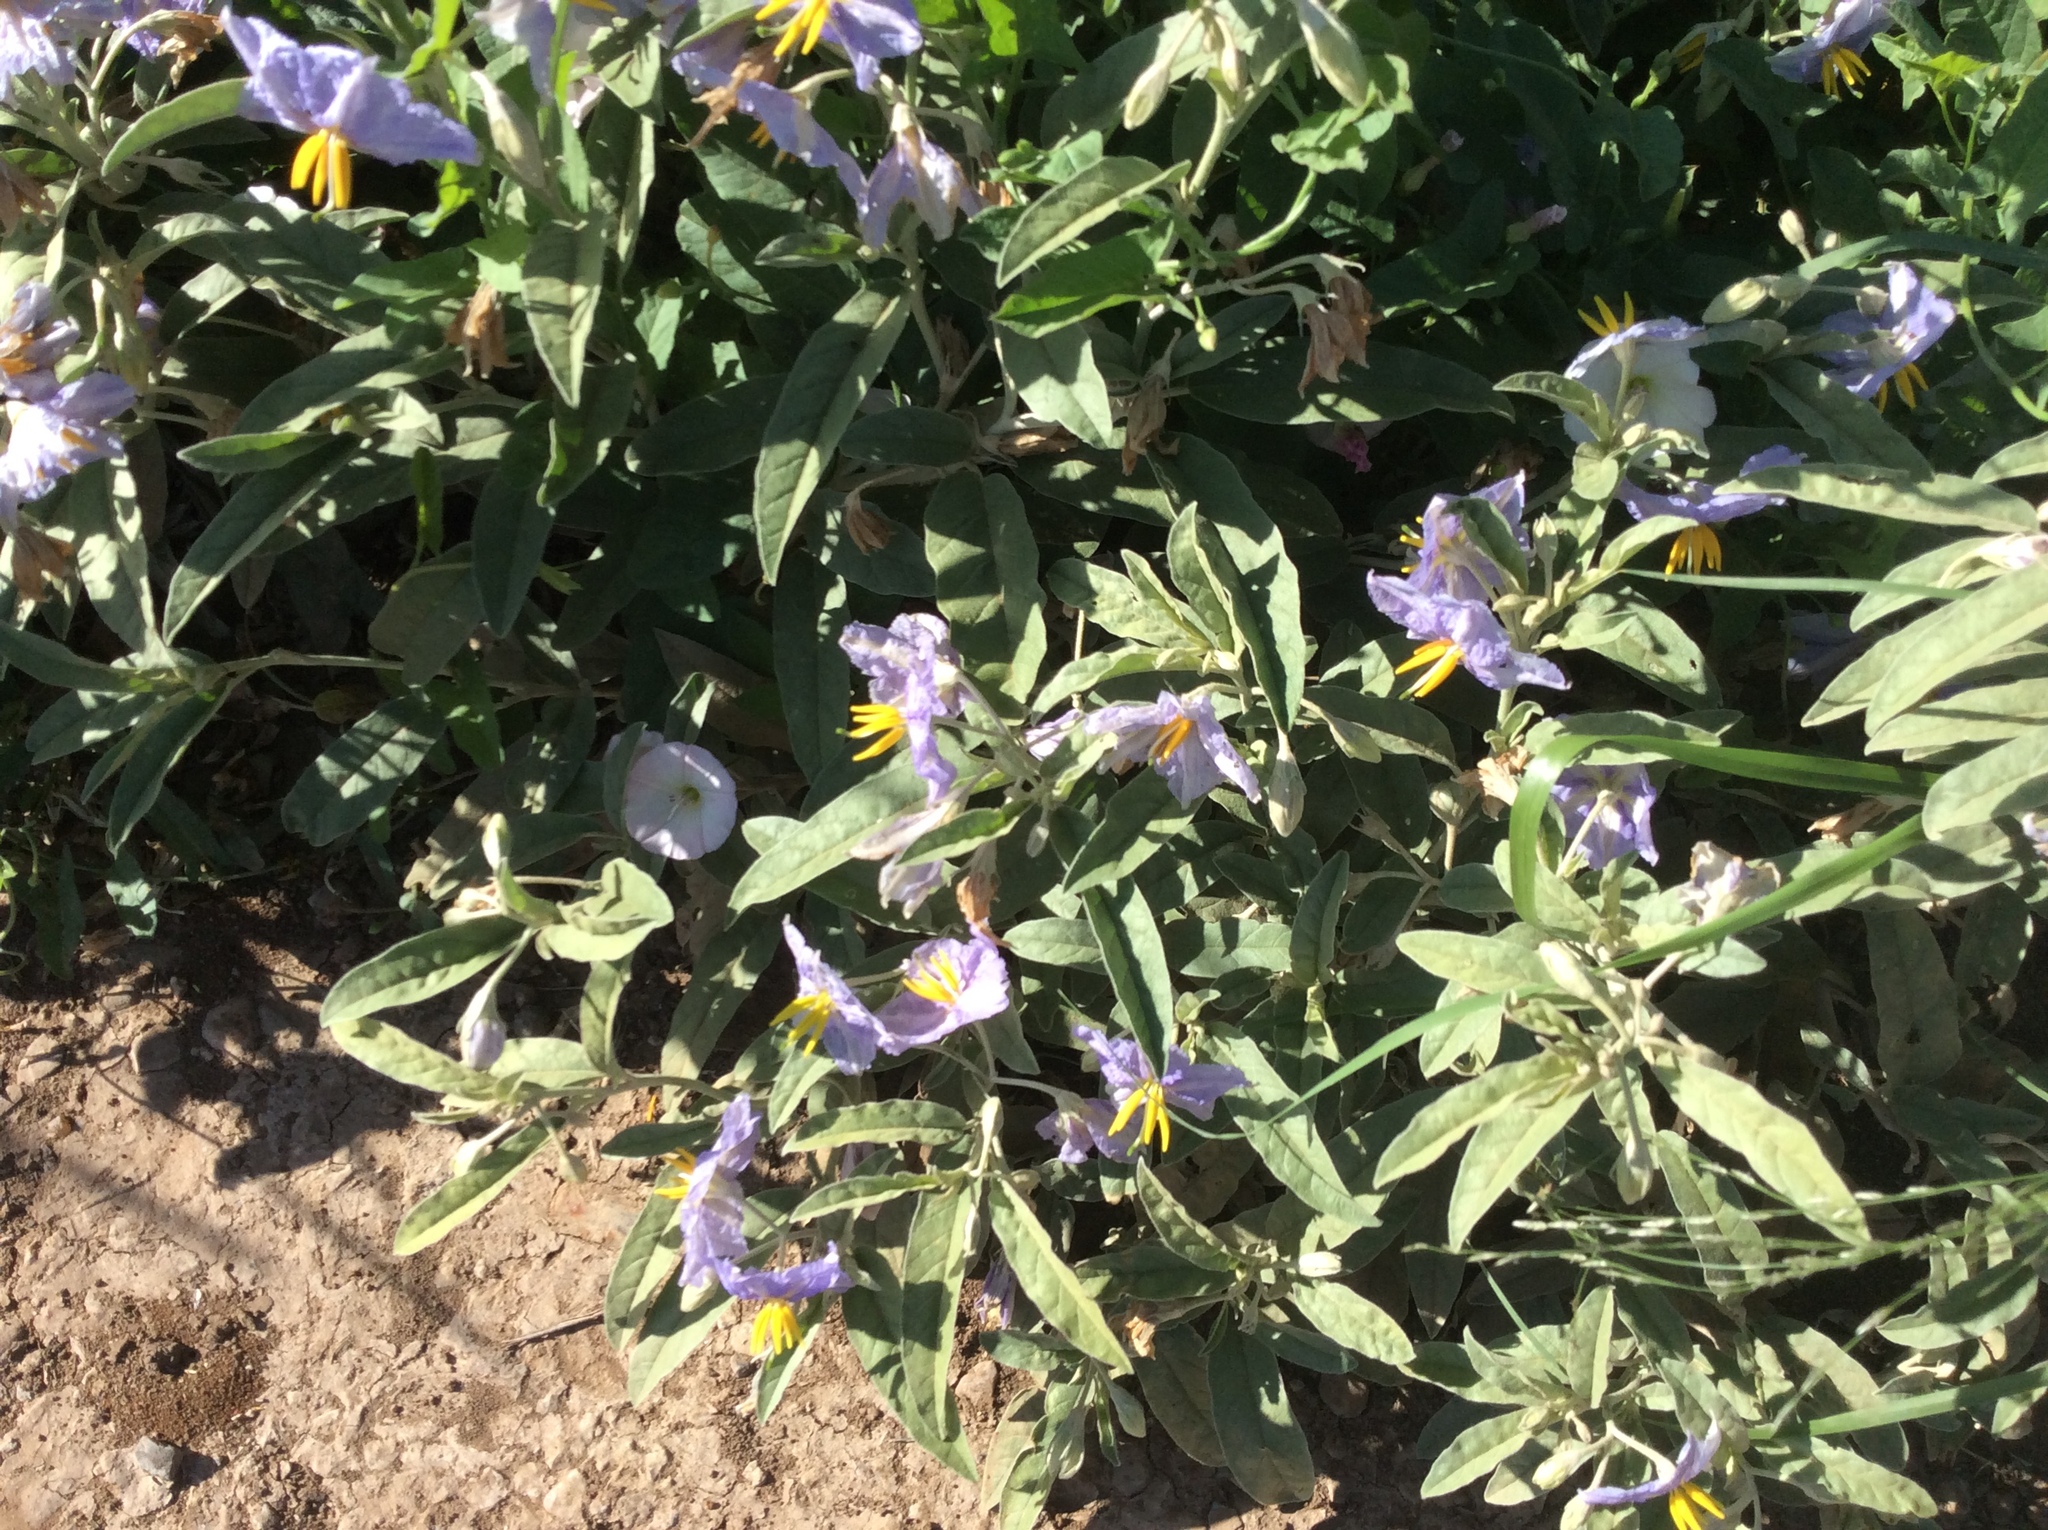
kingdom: Plantae
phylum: Tracheophyta
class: Magnoliopsida
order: Solanales
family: Solanaceae
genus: Solanum
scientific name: Solanum elaeagnifolium
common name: Silverleaf nightshade
